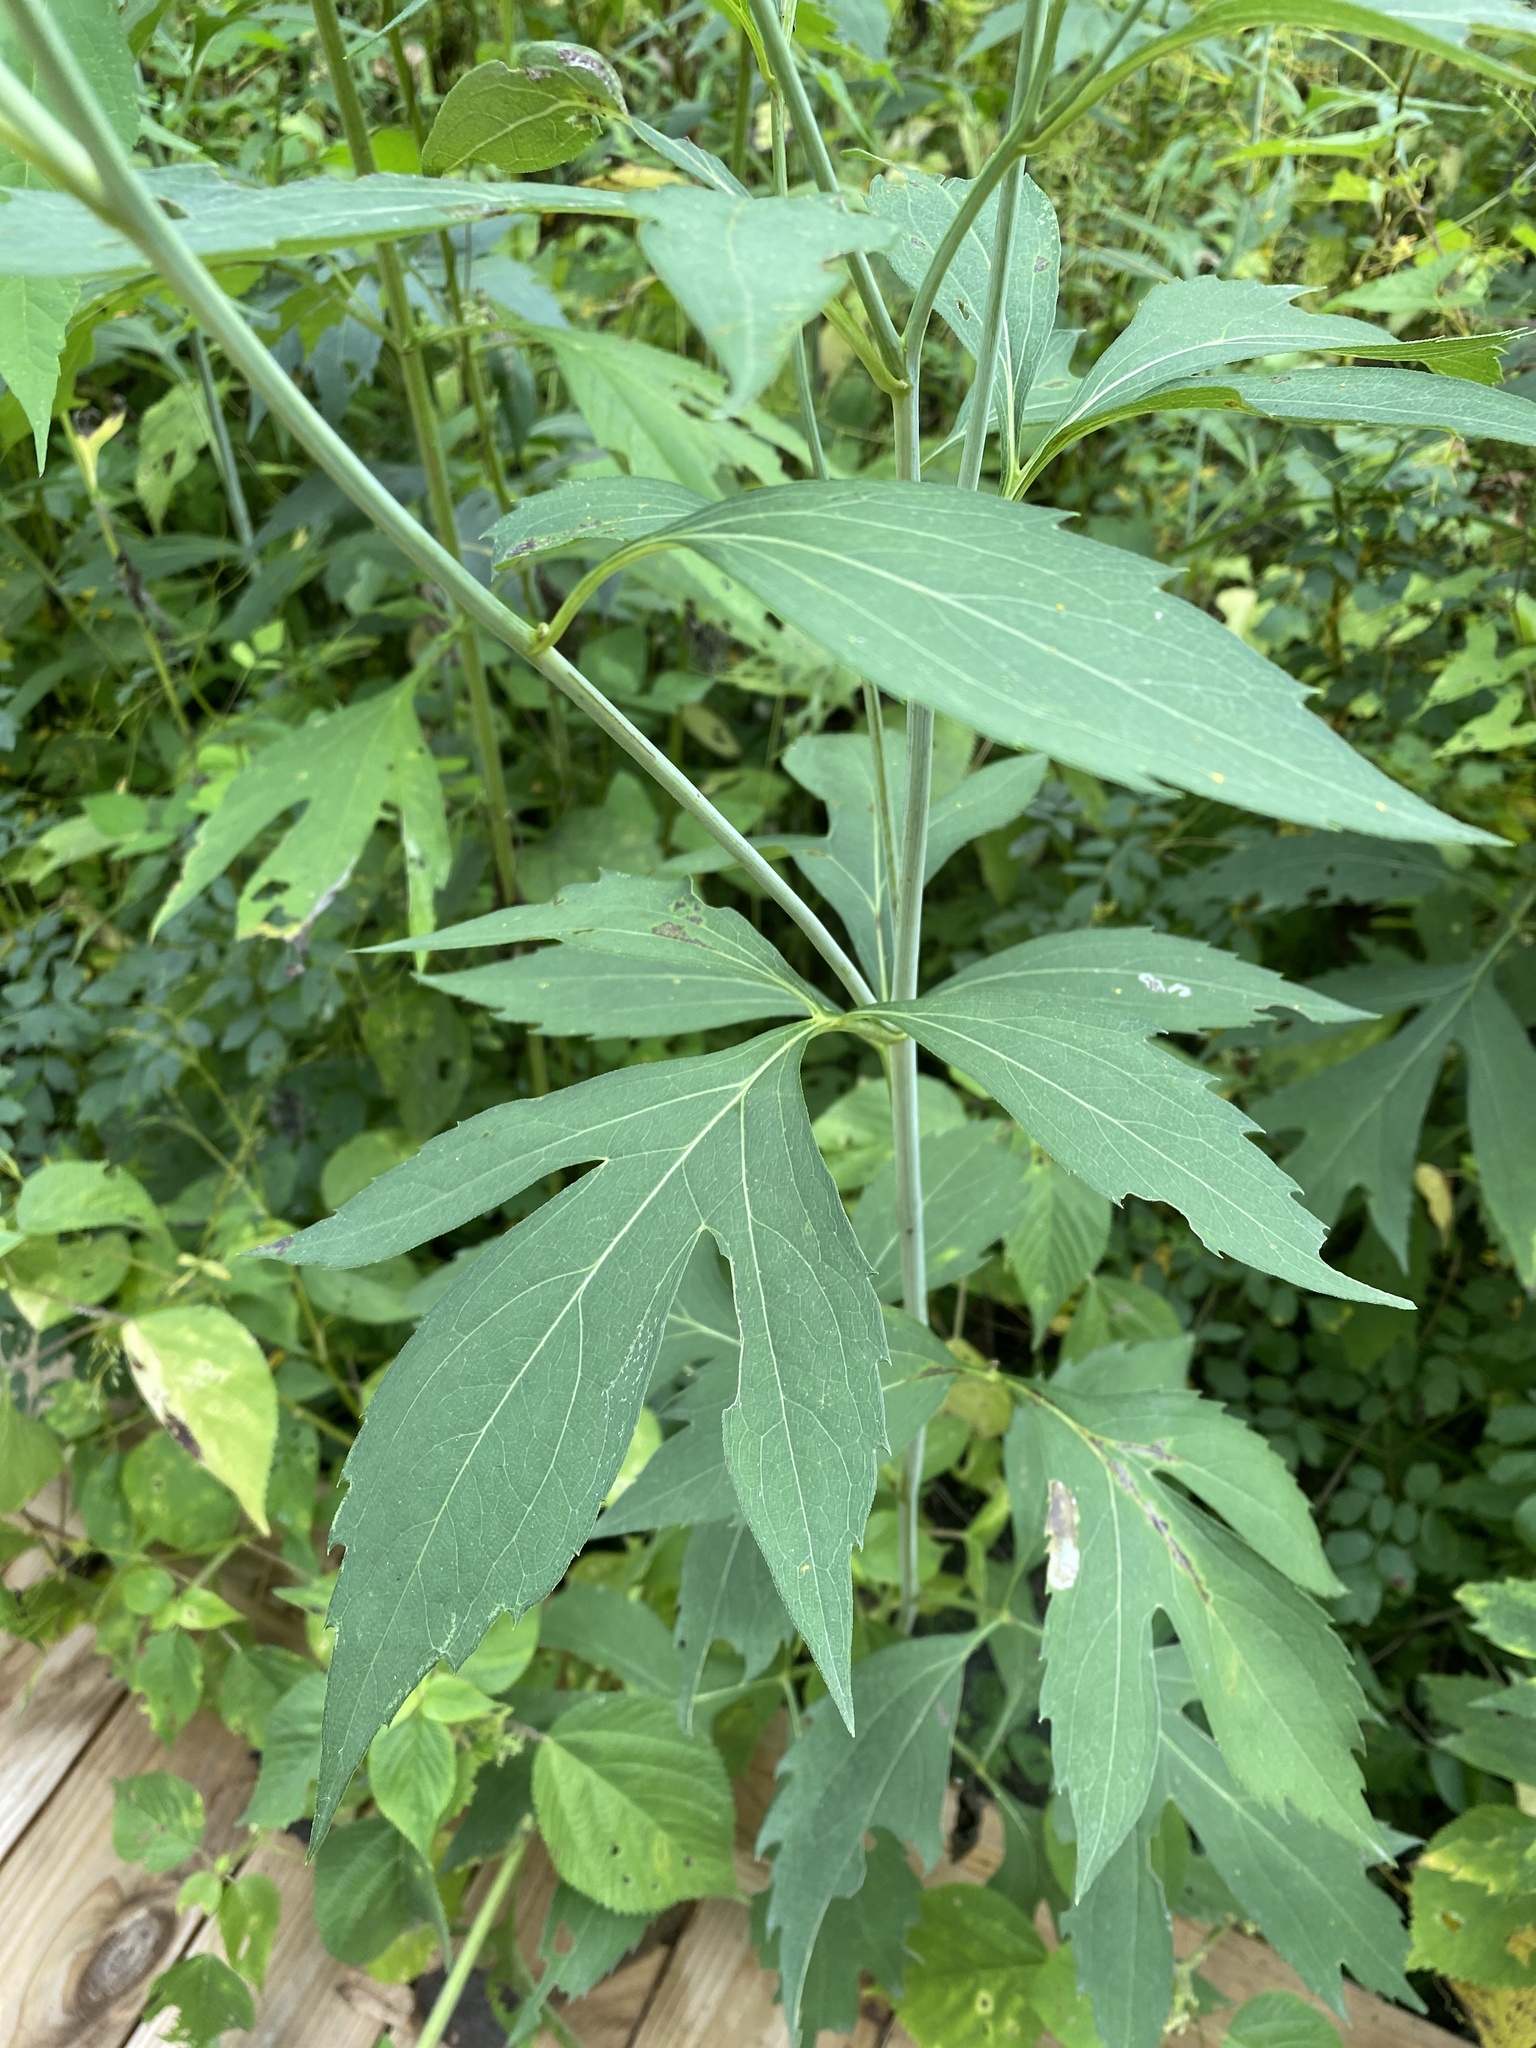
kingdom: Plantae
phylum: Tracheophyta
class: Magnoliopsida
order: Asterales
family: Asteraceae
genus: Rudbeckia
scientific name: Rudbeckia laciniata
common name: Coneflower
